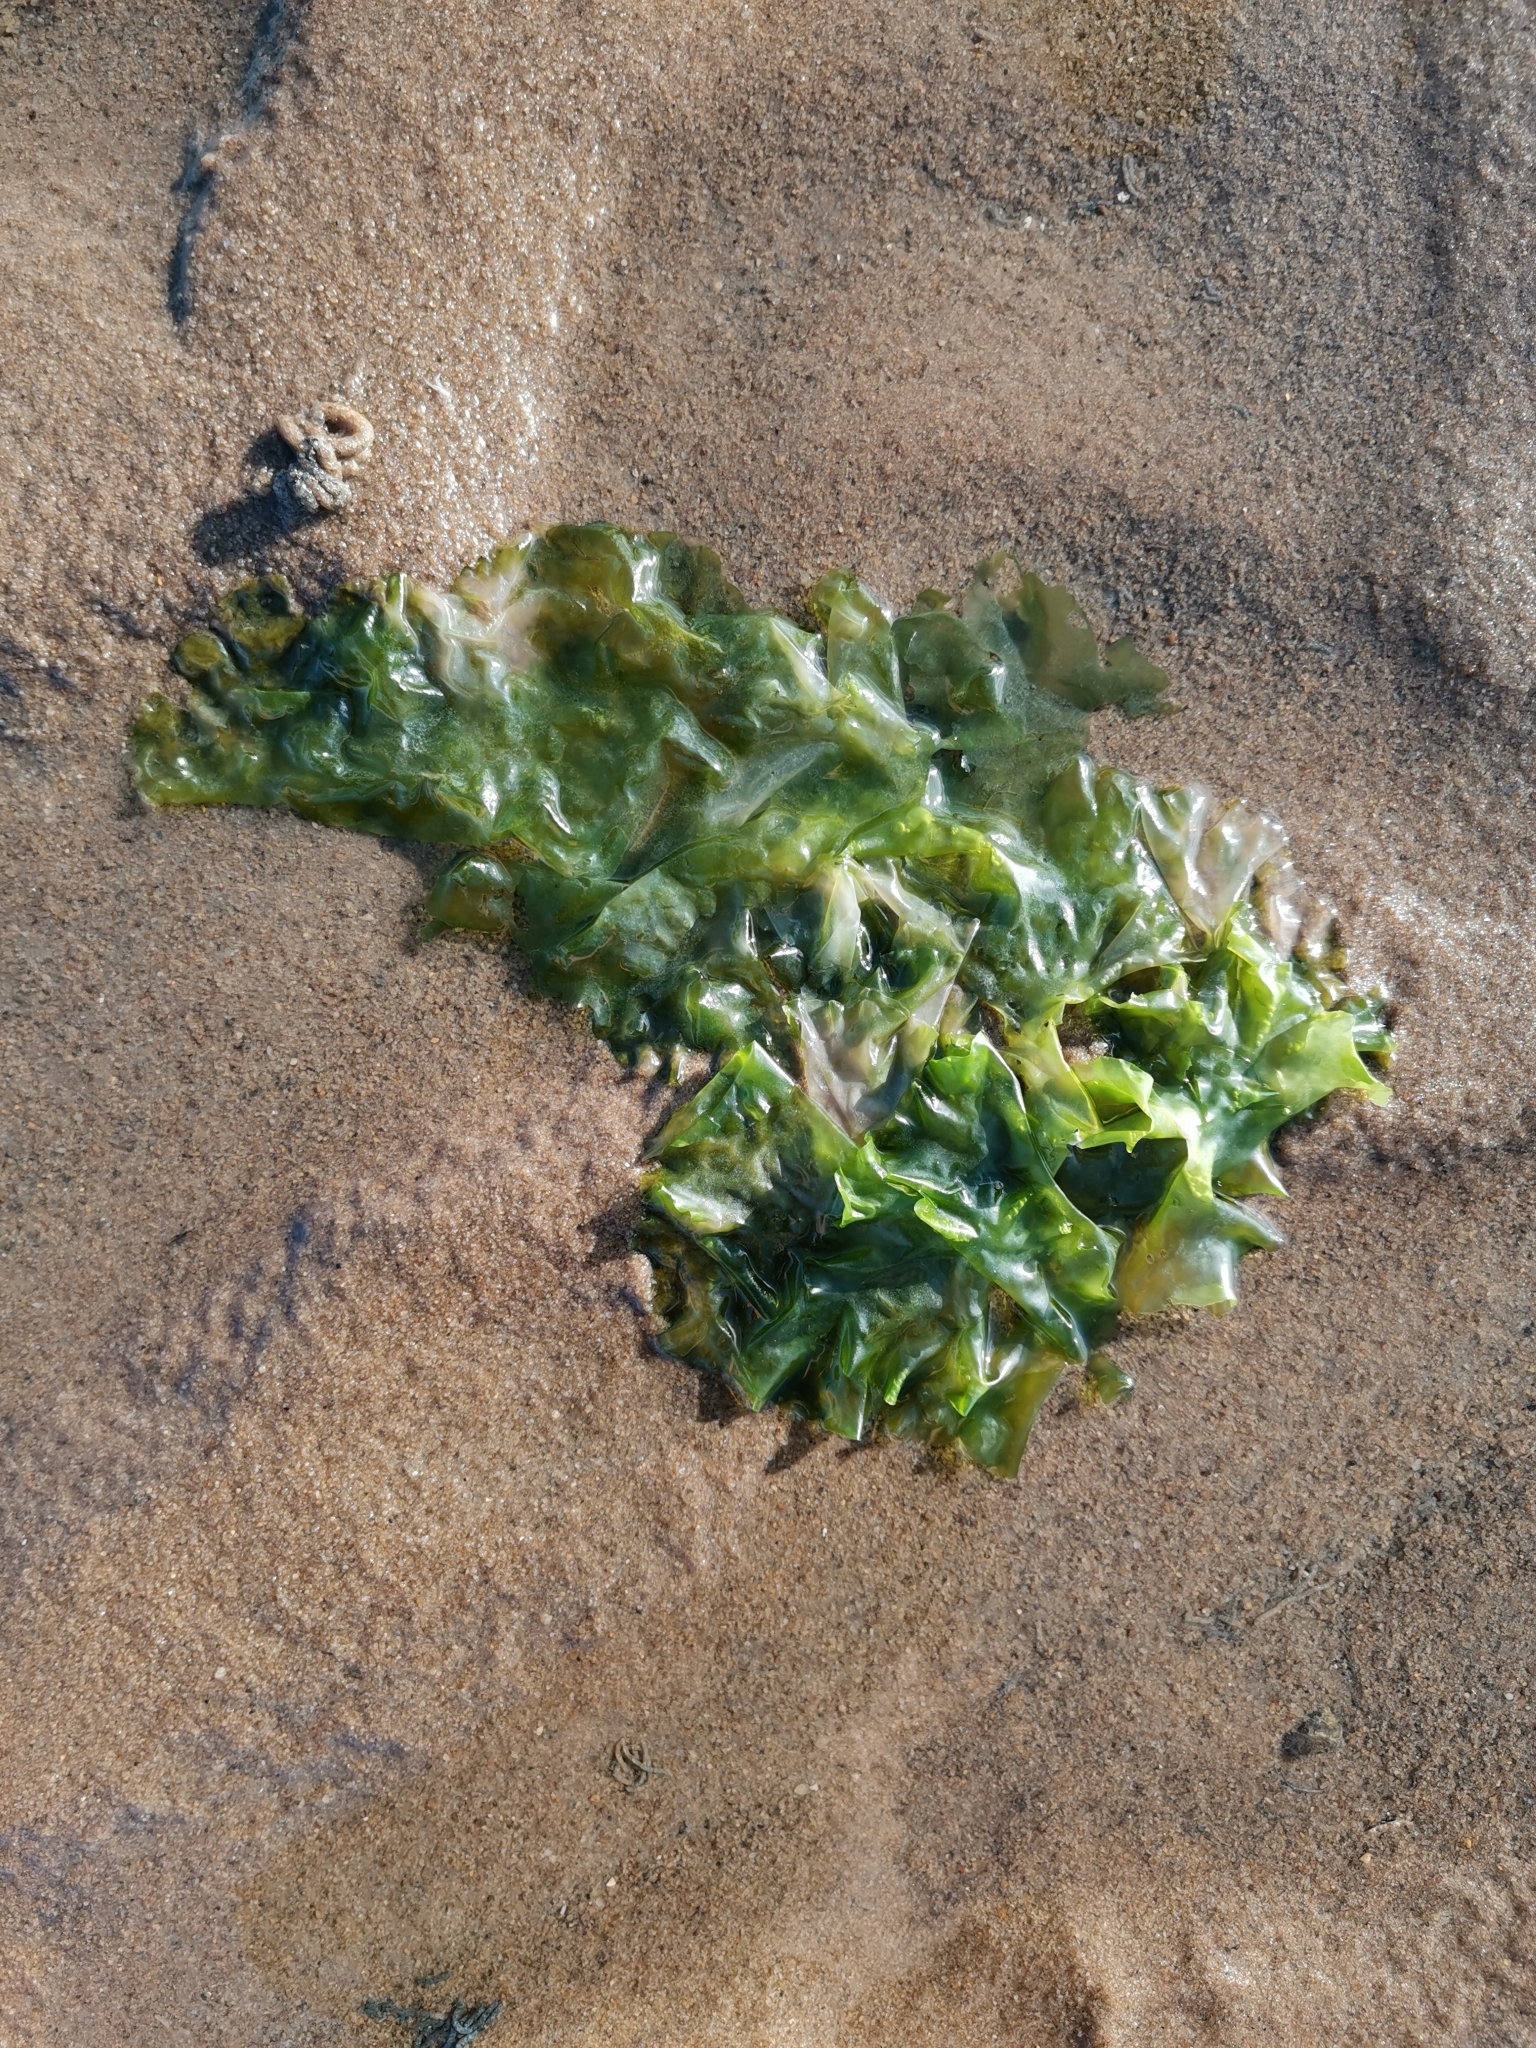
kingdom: Plantae
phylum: Chlorophyta
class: Ulvophyceae
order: Ulvales
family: Ulvaceae
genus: Ulva
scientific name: Ulva lactuca
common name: Sea lettuce
